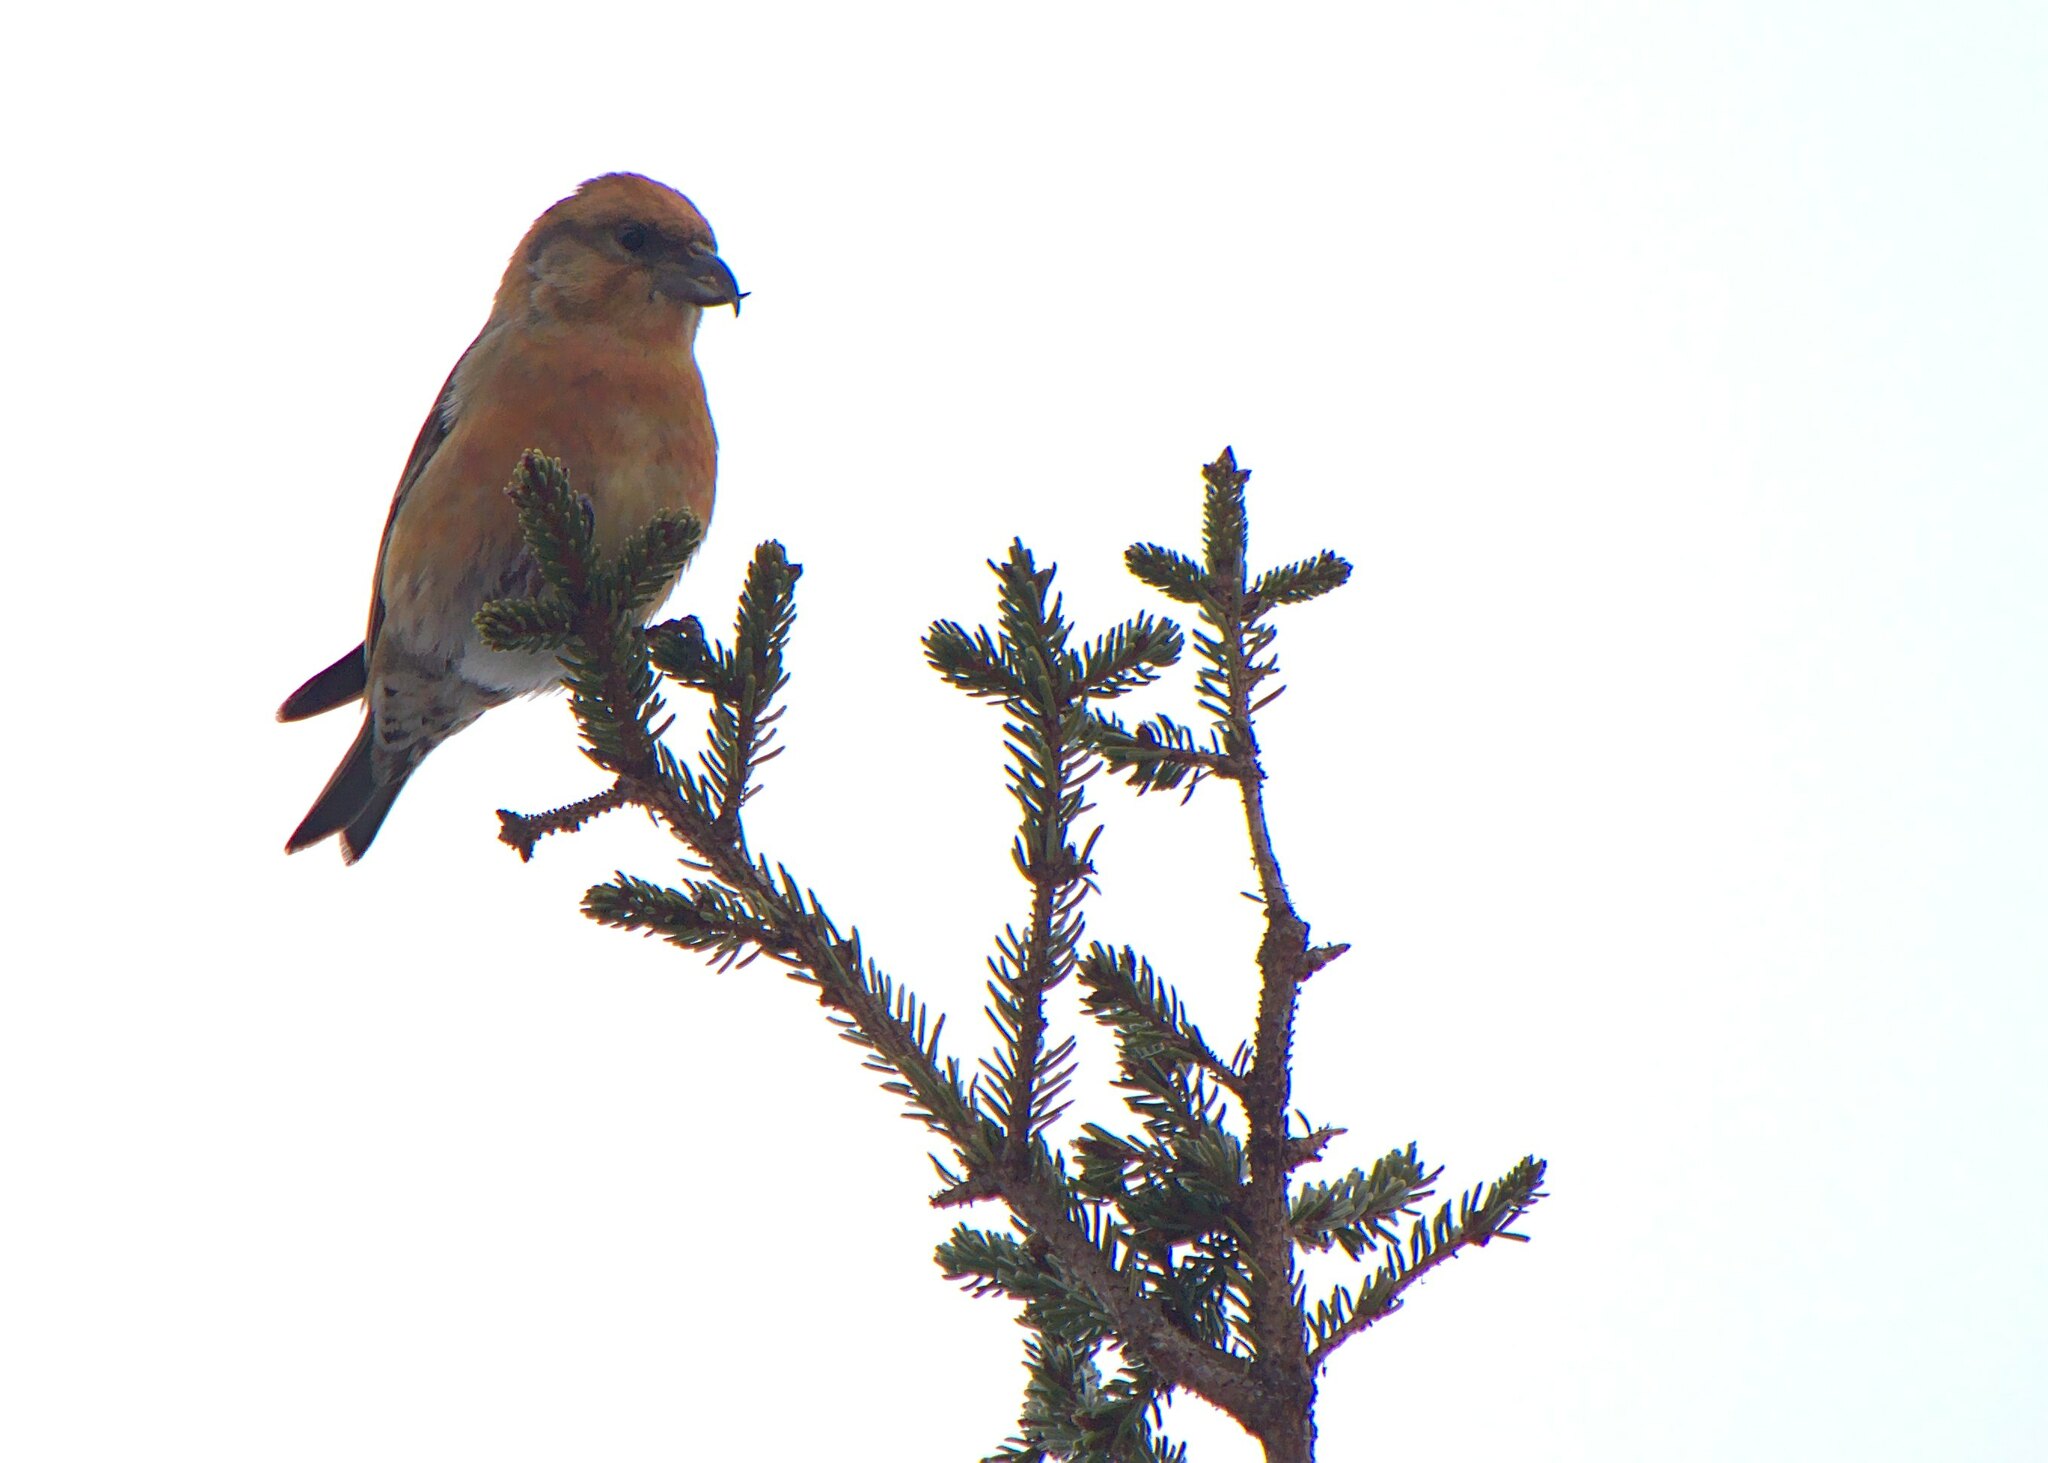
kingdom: Animalia
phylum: Chordata
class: Aves
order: Passeriformes
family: Fringillidae
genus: Loxia
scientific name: Loxia curvirostra
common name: Red crossbill
